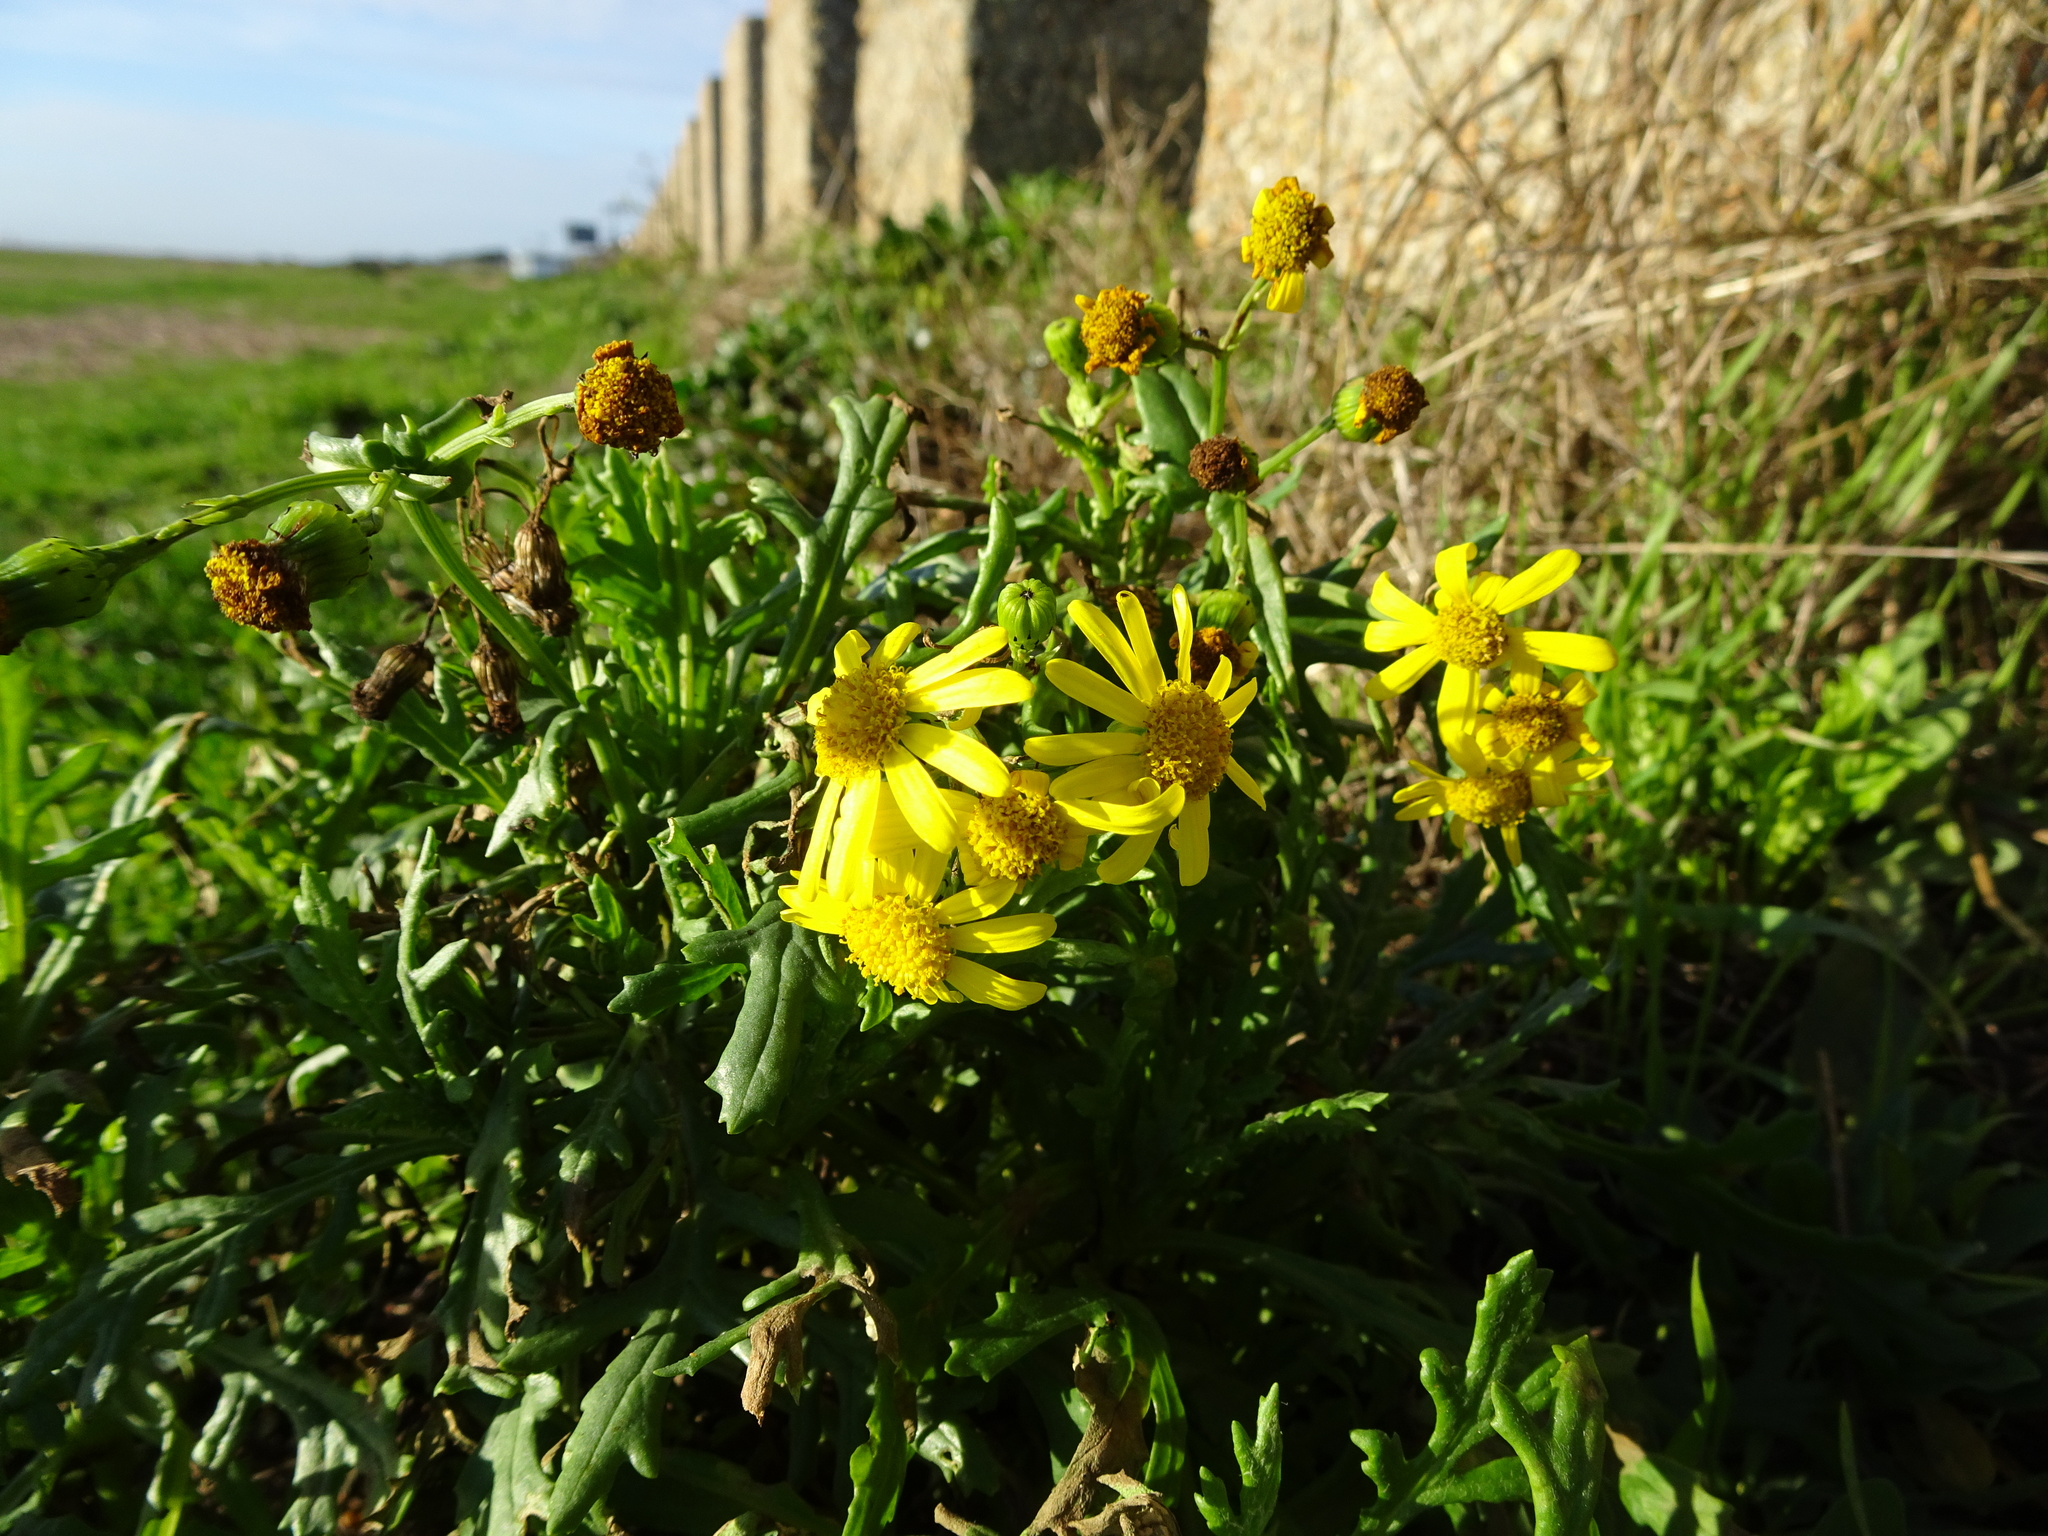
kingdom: Plantae
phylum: Tracheophyta
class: Magnoliopsida
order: Asterales
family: Asteraceae
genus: Senecio
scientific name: Senecio squalidus
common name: Oxford ragwort
